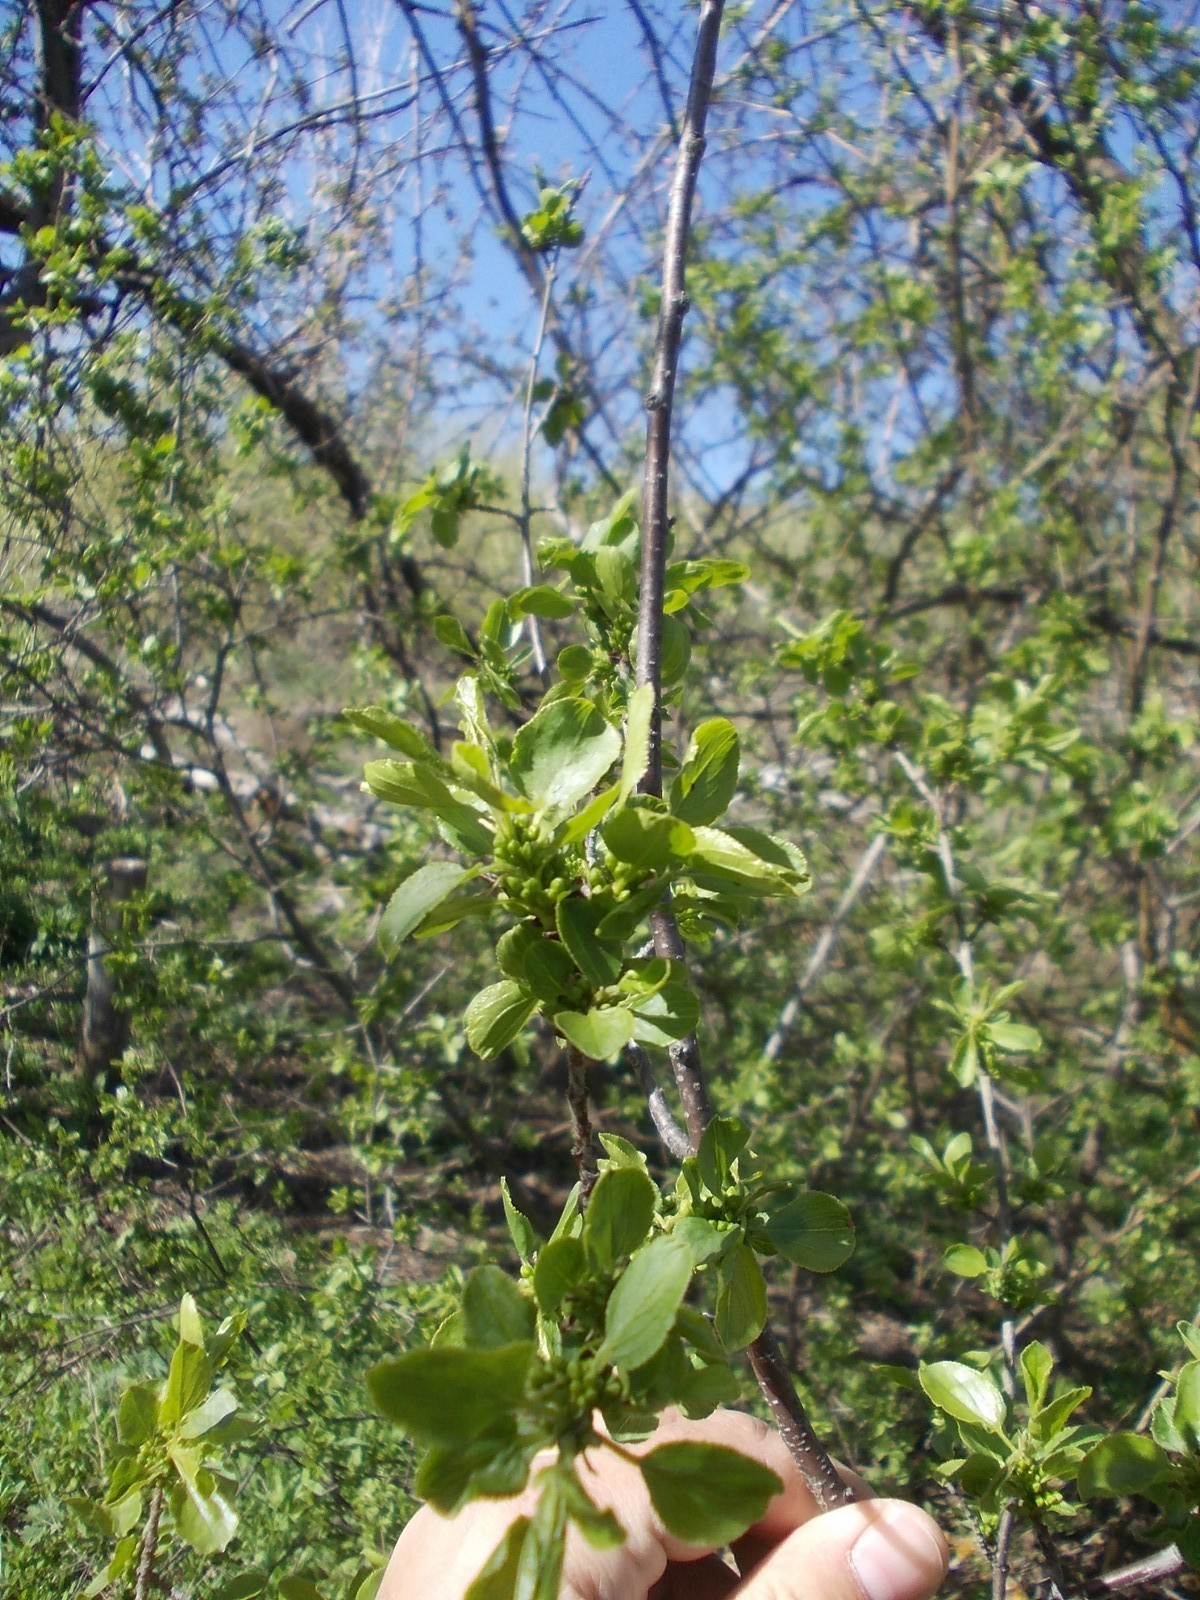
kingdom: Plantae
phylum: Tracheophyta
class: Magnoliopsida
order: Rosales
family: Rhamnaceae
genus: Rhamnus
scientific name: Rhamnus cathartica
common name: Common buckthorn
